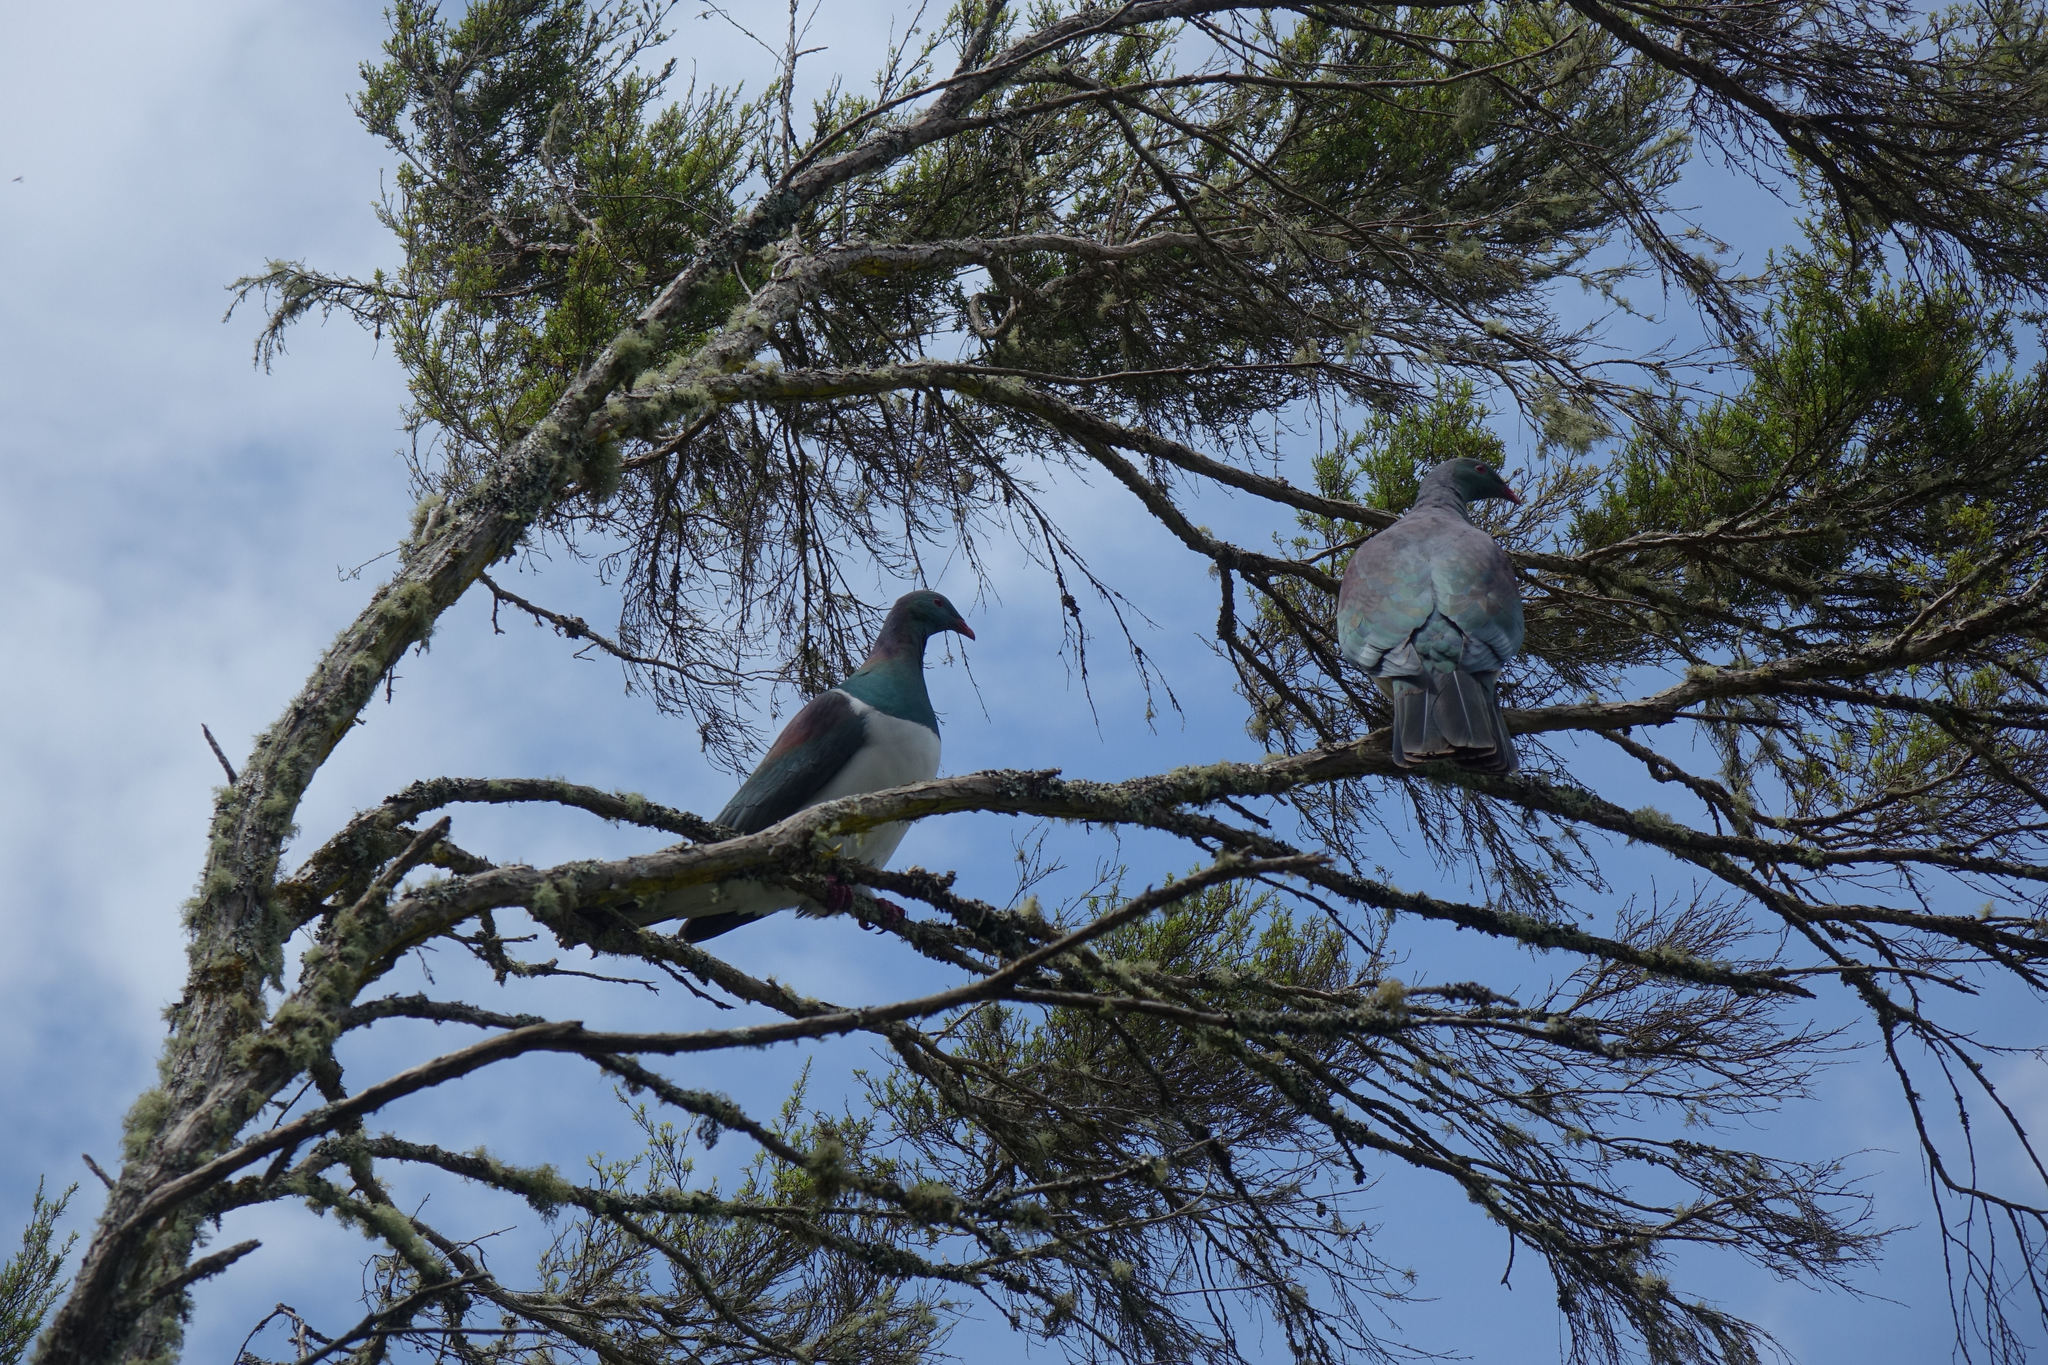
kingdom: Animalia
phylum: Chordata
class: Aves
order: Columbiformes
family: Columbidae
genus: Hemiphaga
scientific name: Hemiphaga novaeseelandiae
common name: New zealand pigeon
